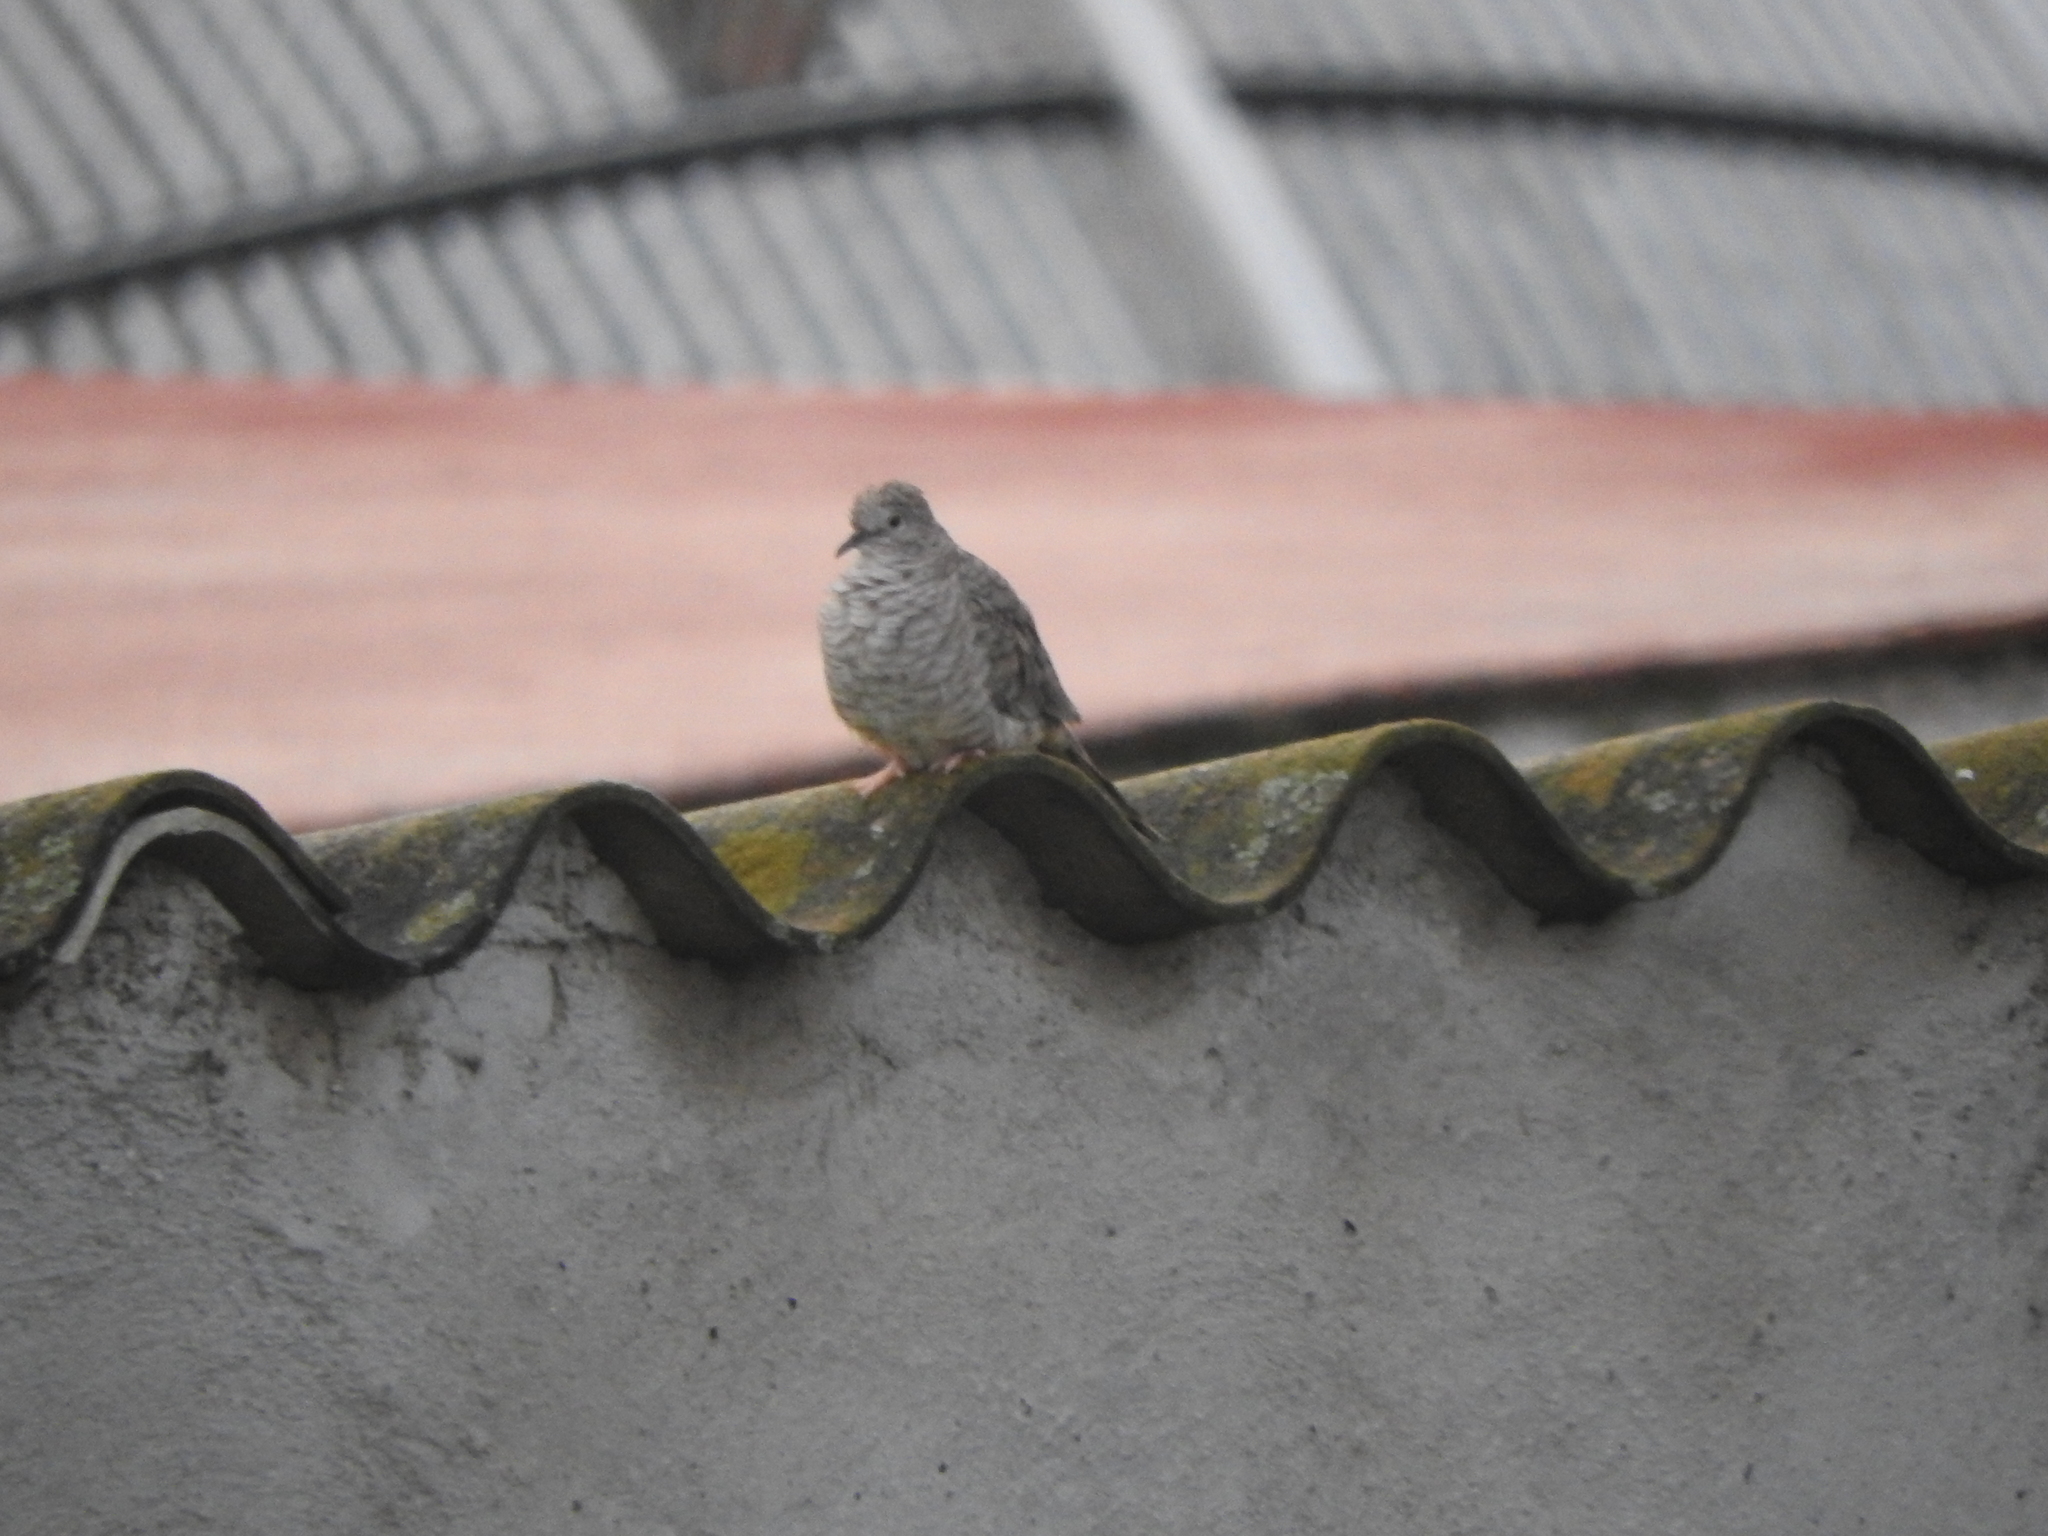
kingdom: Animalia
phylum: Chordata
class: Aves
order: Columbiformes
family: Columbidae
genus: Columbina
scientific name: Columbina inca
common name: Inca dove
